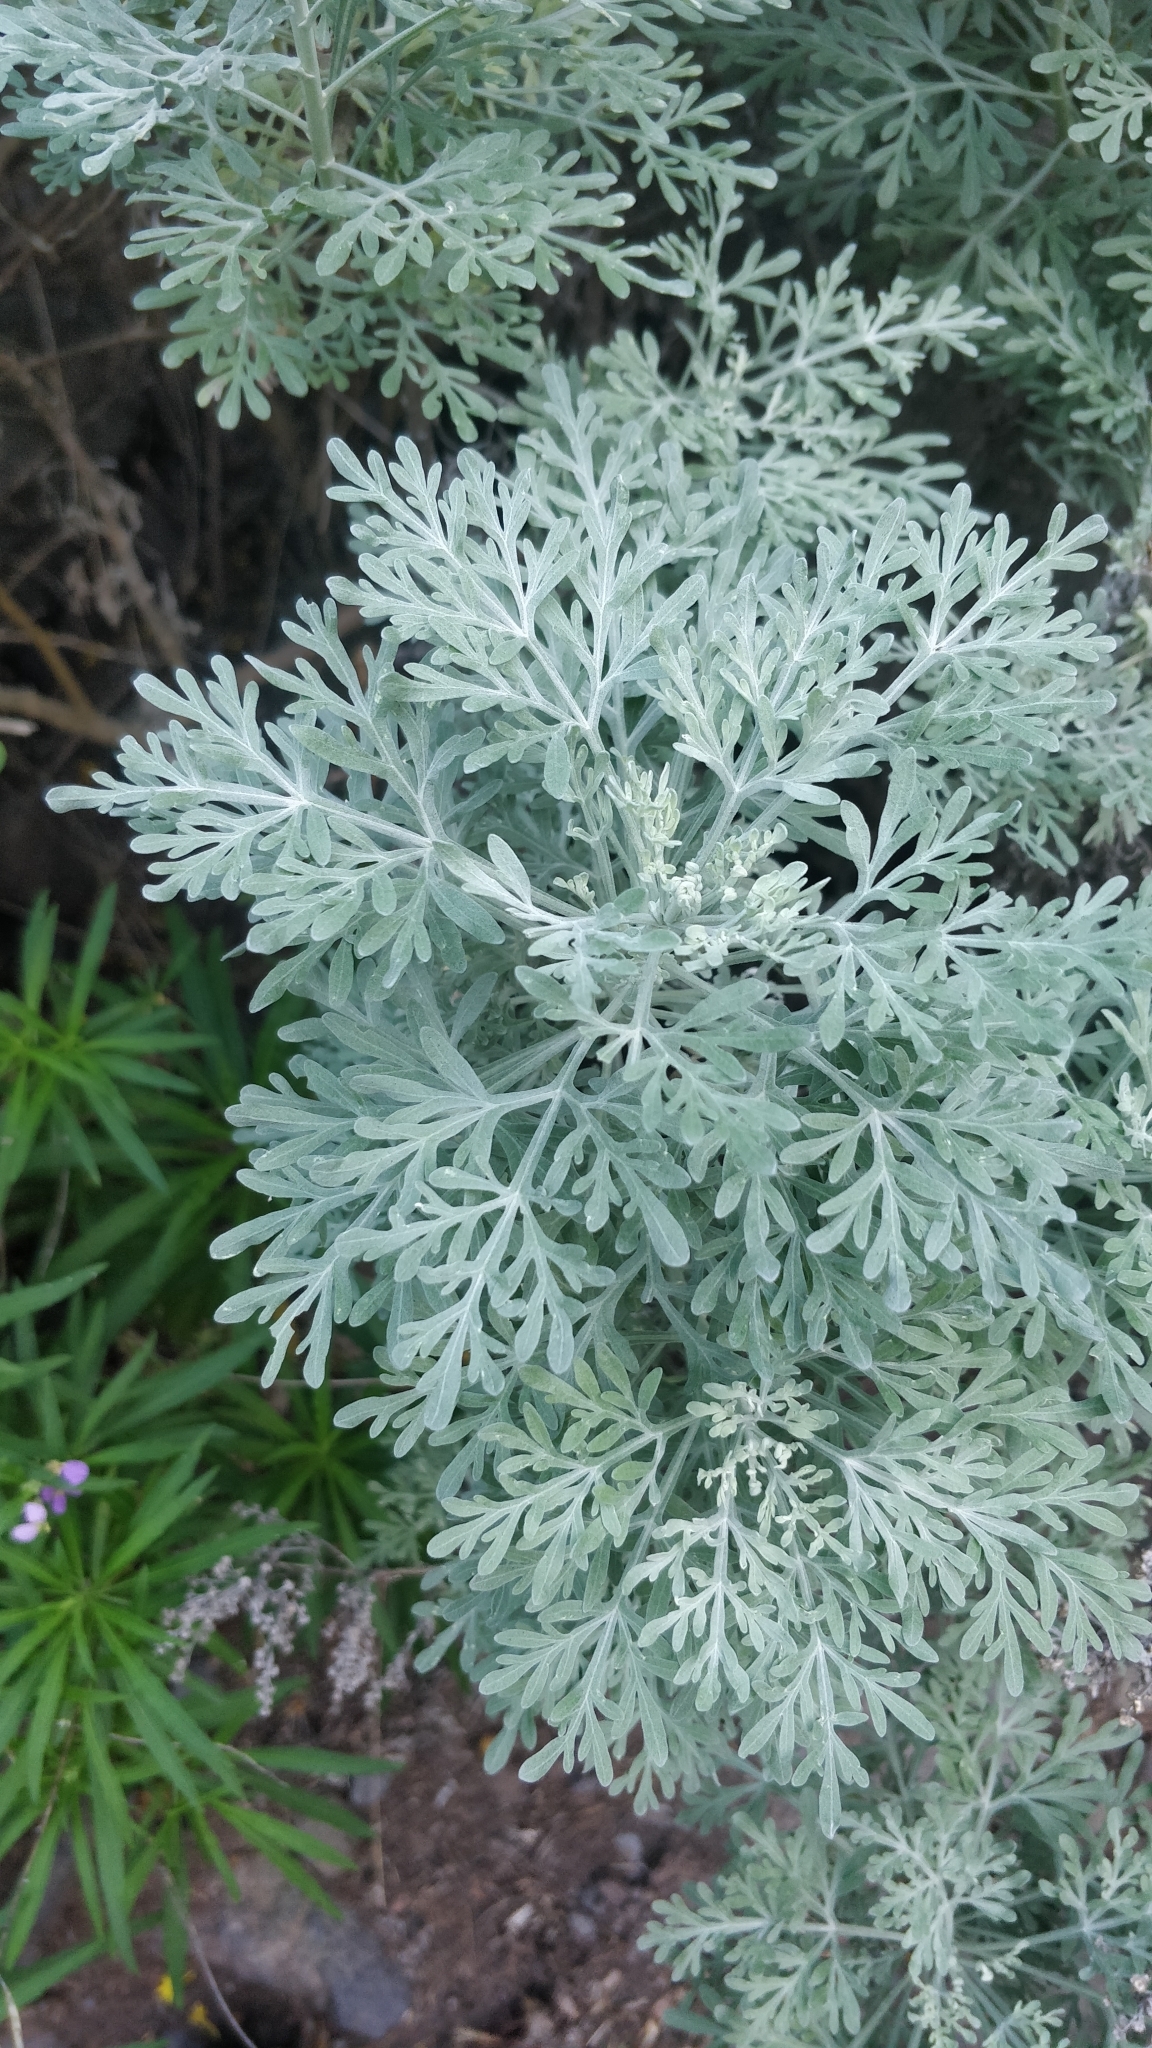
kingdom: Plantae
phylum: Tracheophyta
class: Magnoliopsida
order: Asterales
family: Asteraceae
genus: Artemisia
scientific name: Artemisia thuscula
